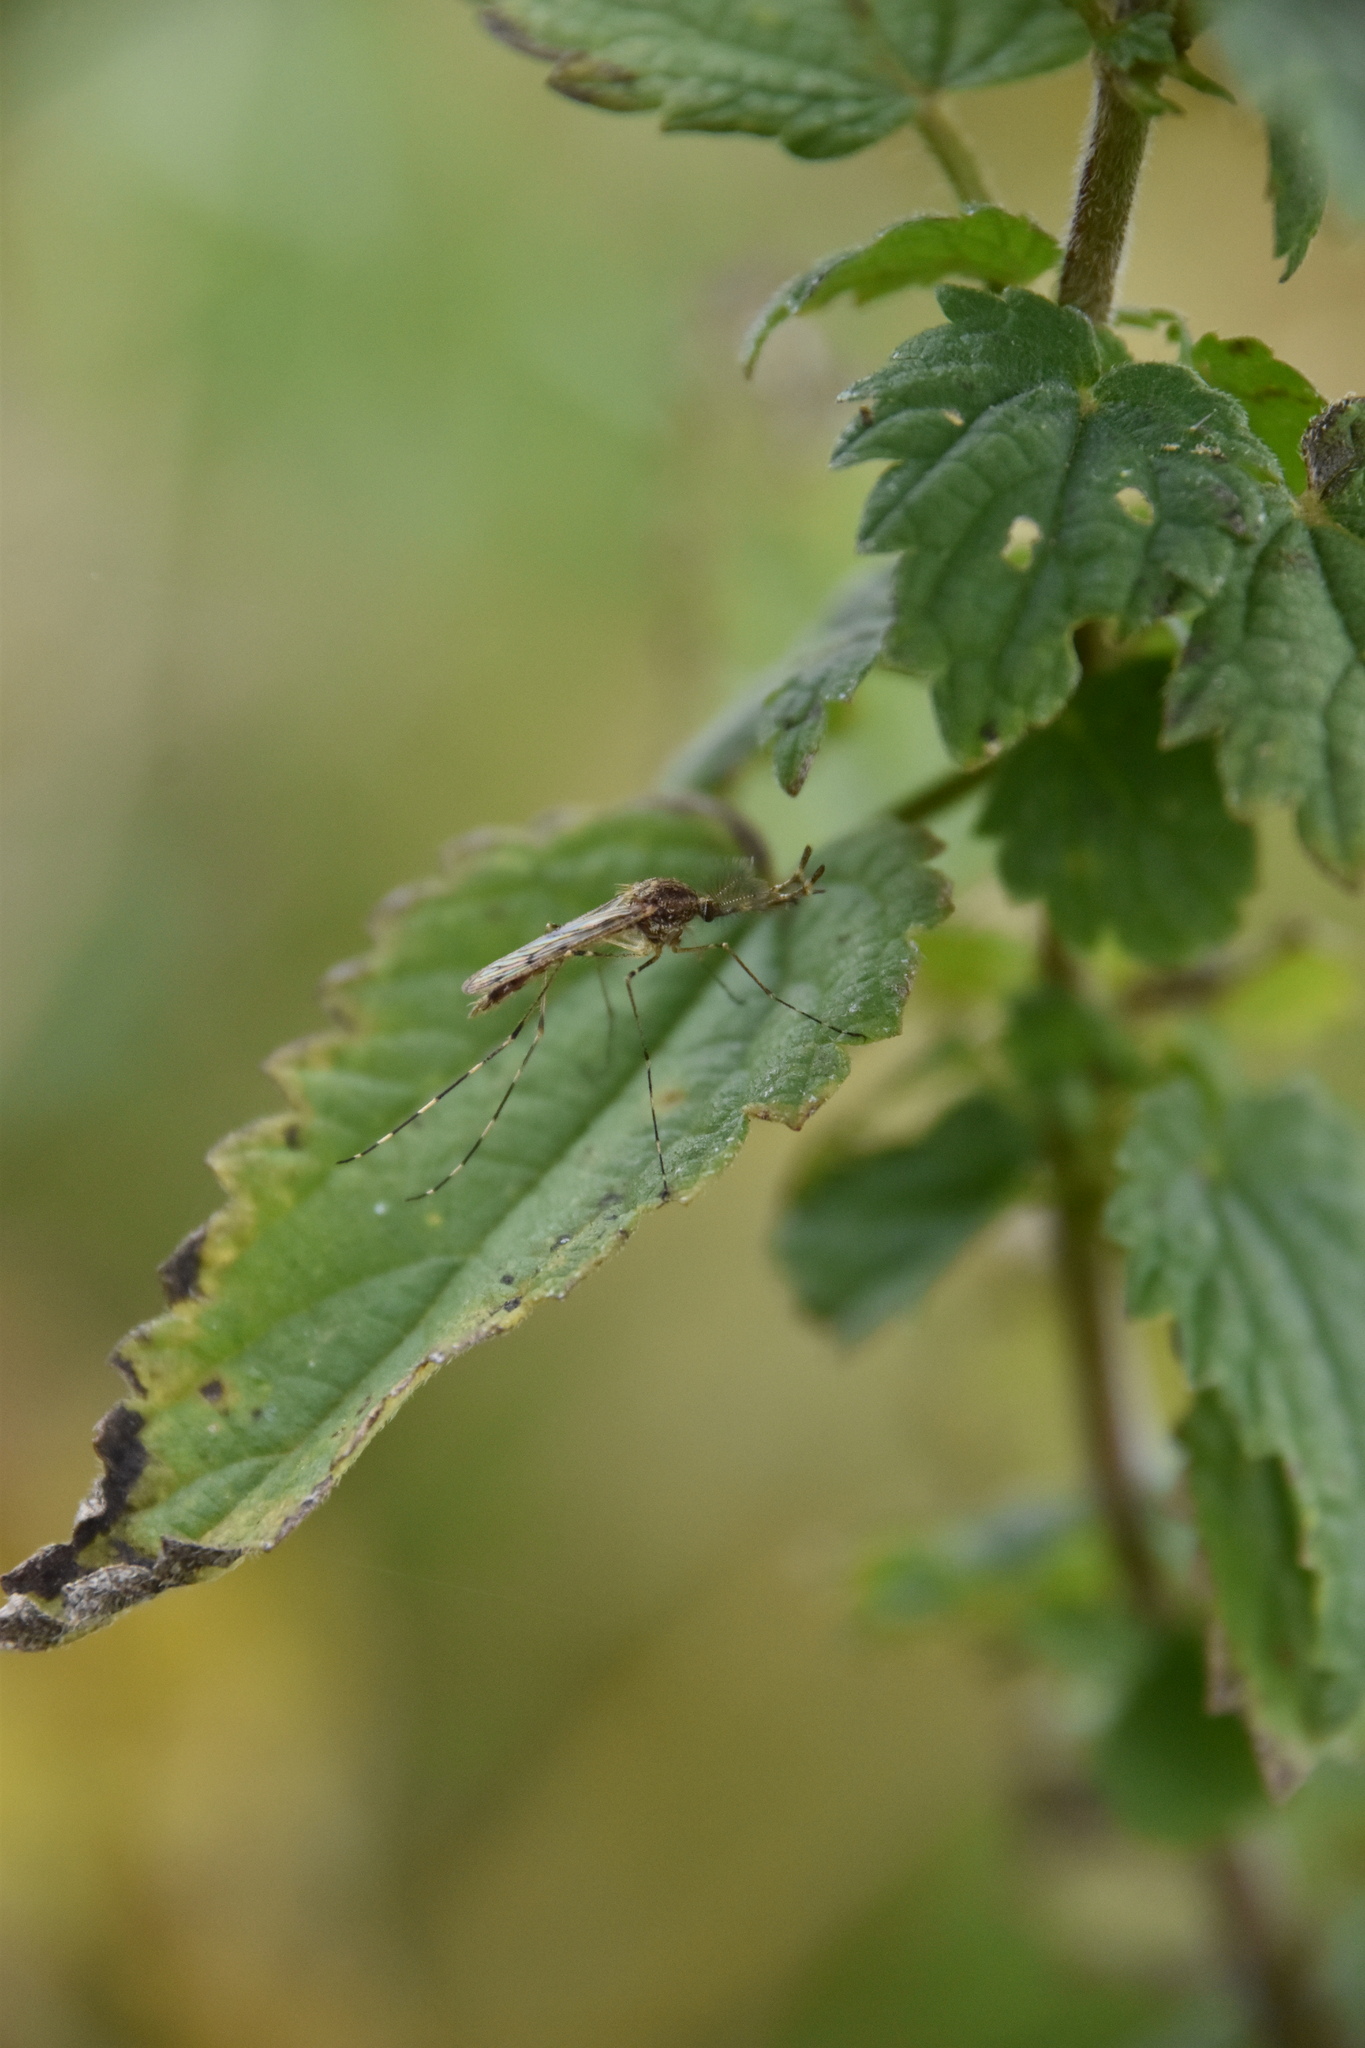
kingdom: Animalia
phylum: Arthropoda
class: Insecta
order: Diptera
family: Culicidae
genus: Culiseta
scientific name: Culiseta annulata
